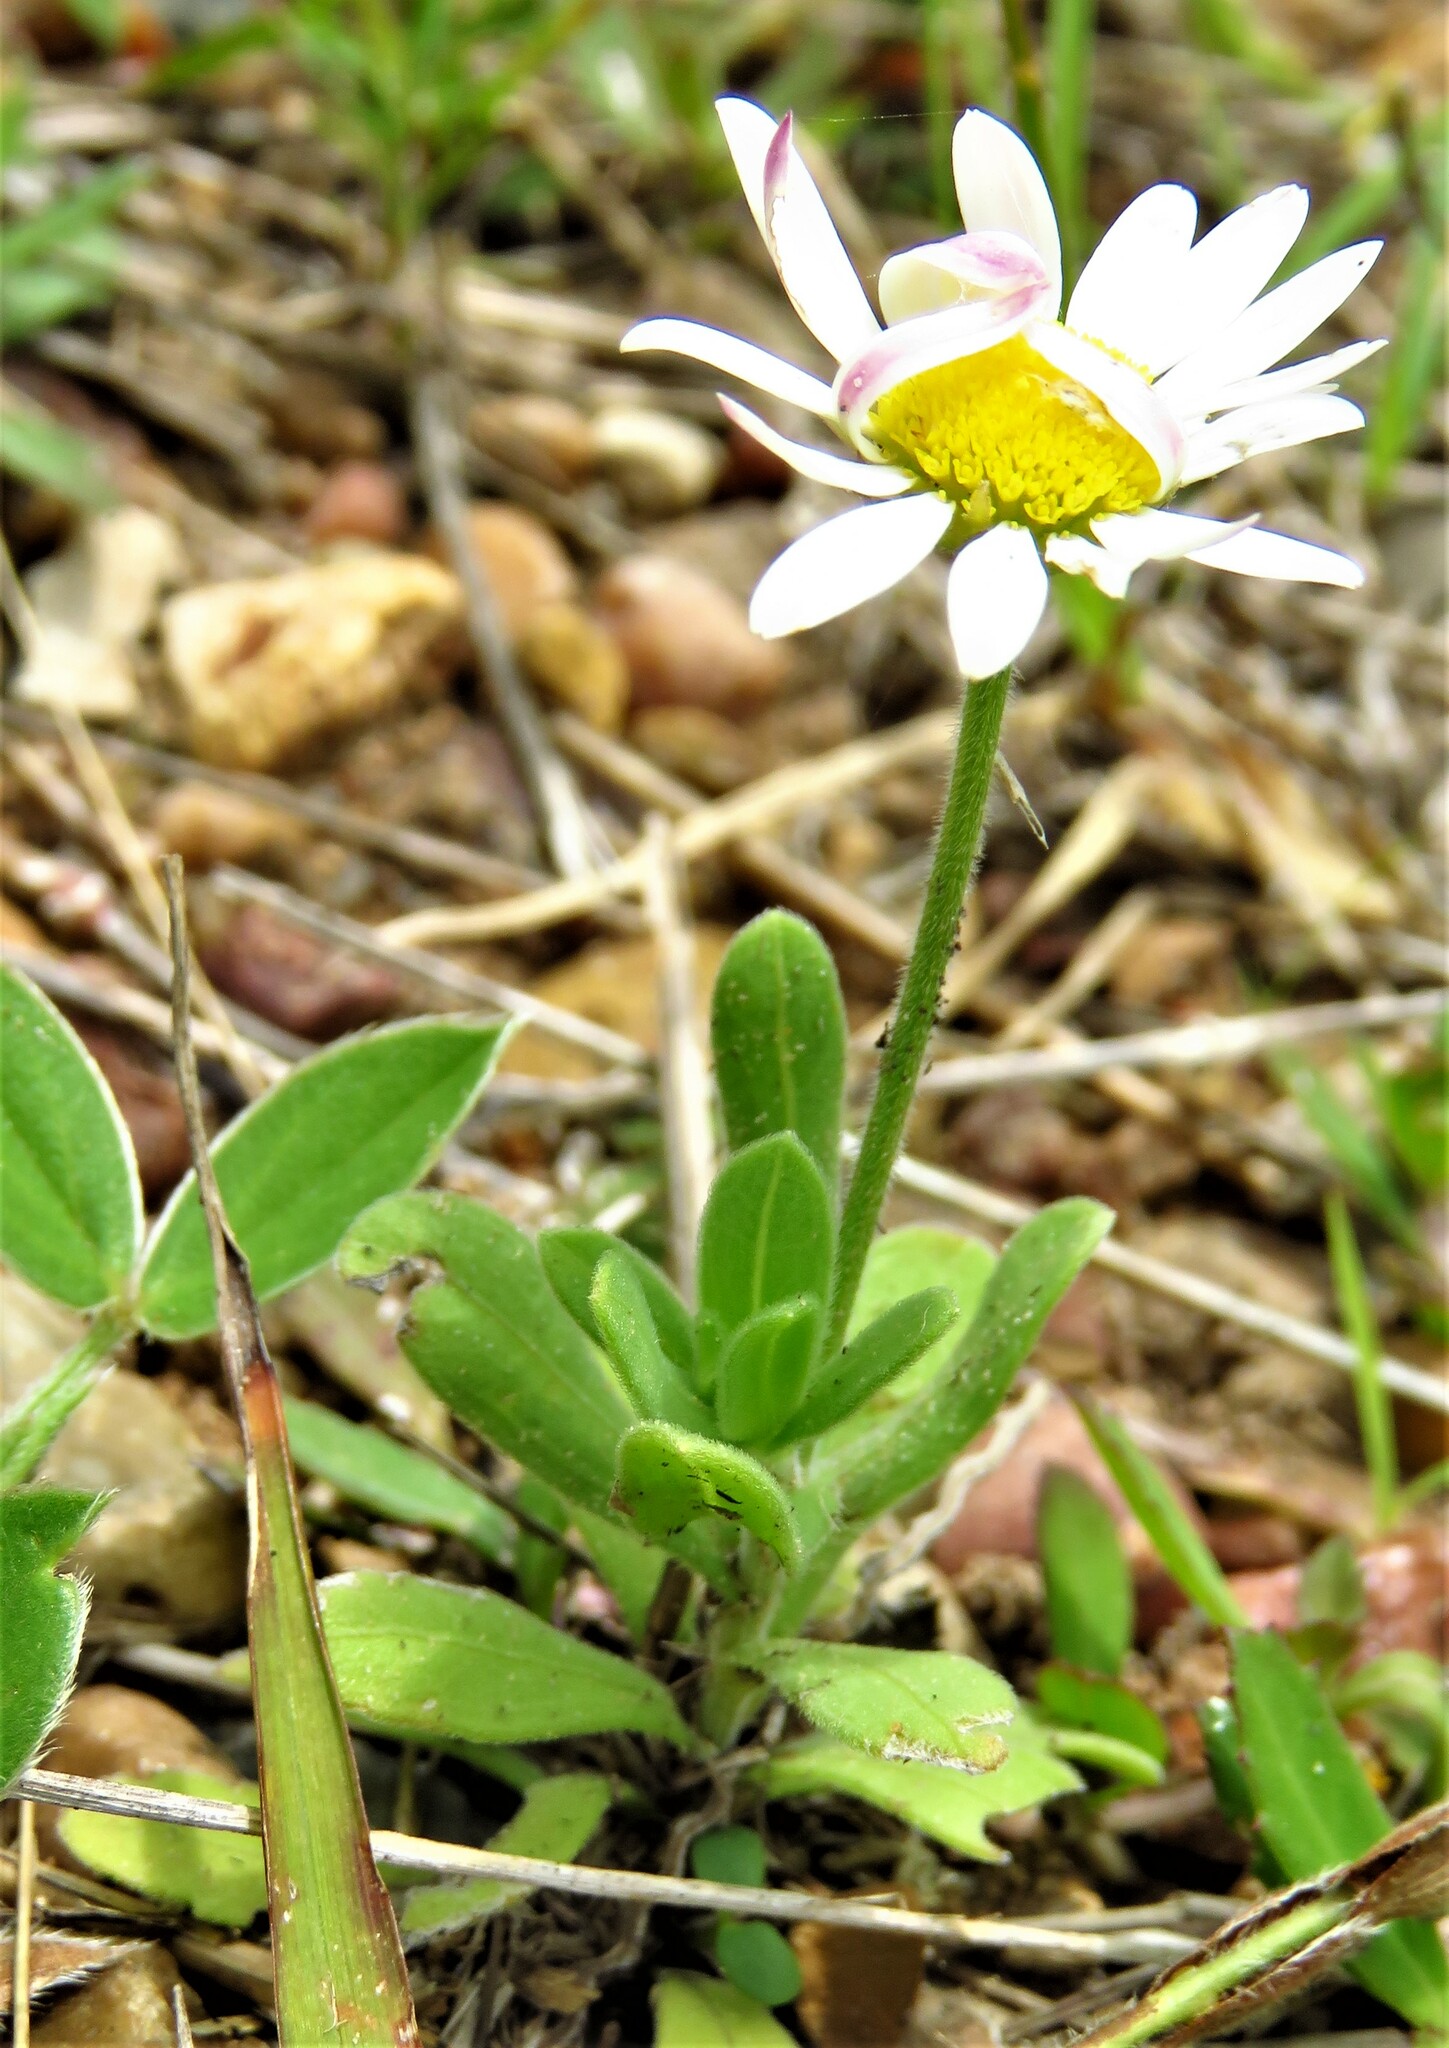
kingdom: Plantae
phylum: Tracheophyta
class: Magnoliopsida
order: Asterales
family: Asteraceae
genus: Aphanostephus
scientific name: Aphanostephus skirrhobasis
